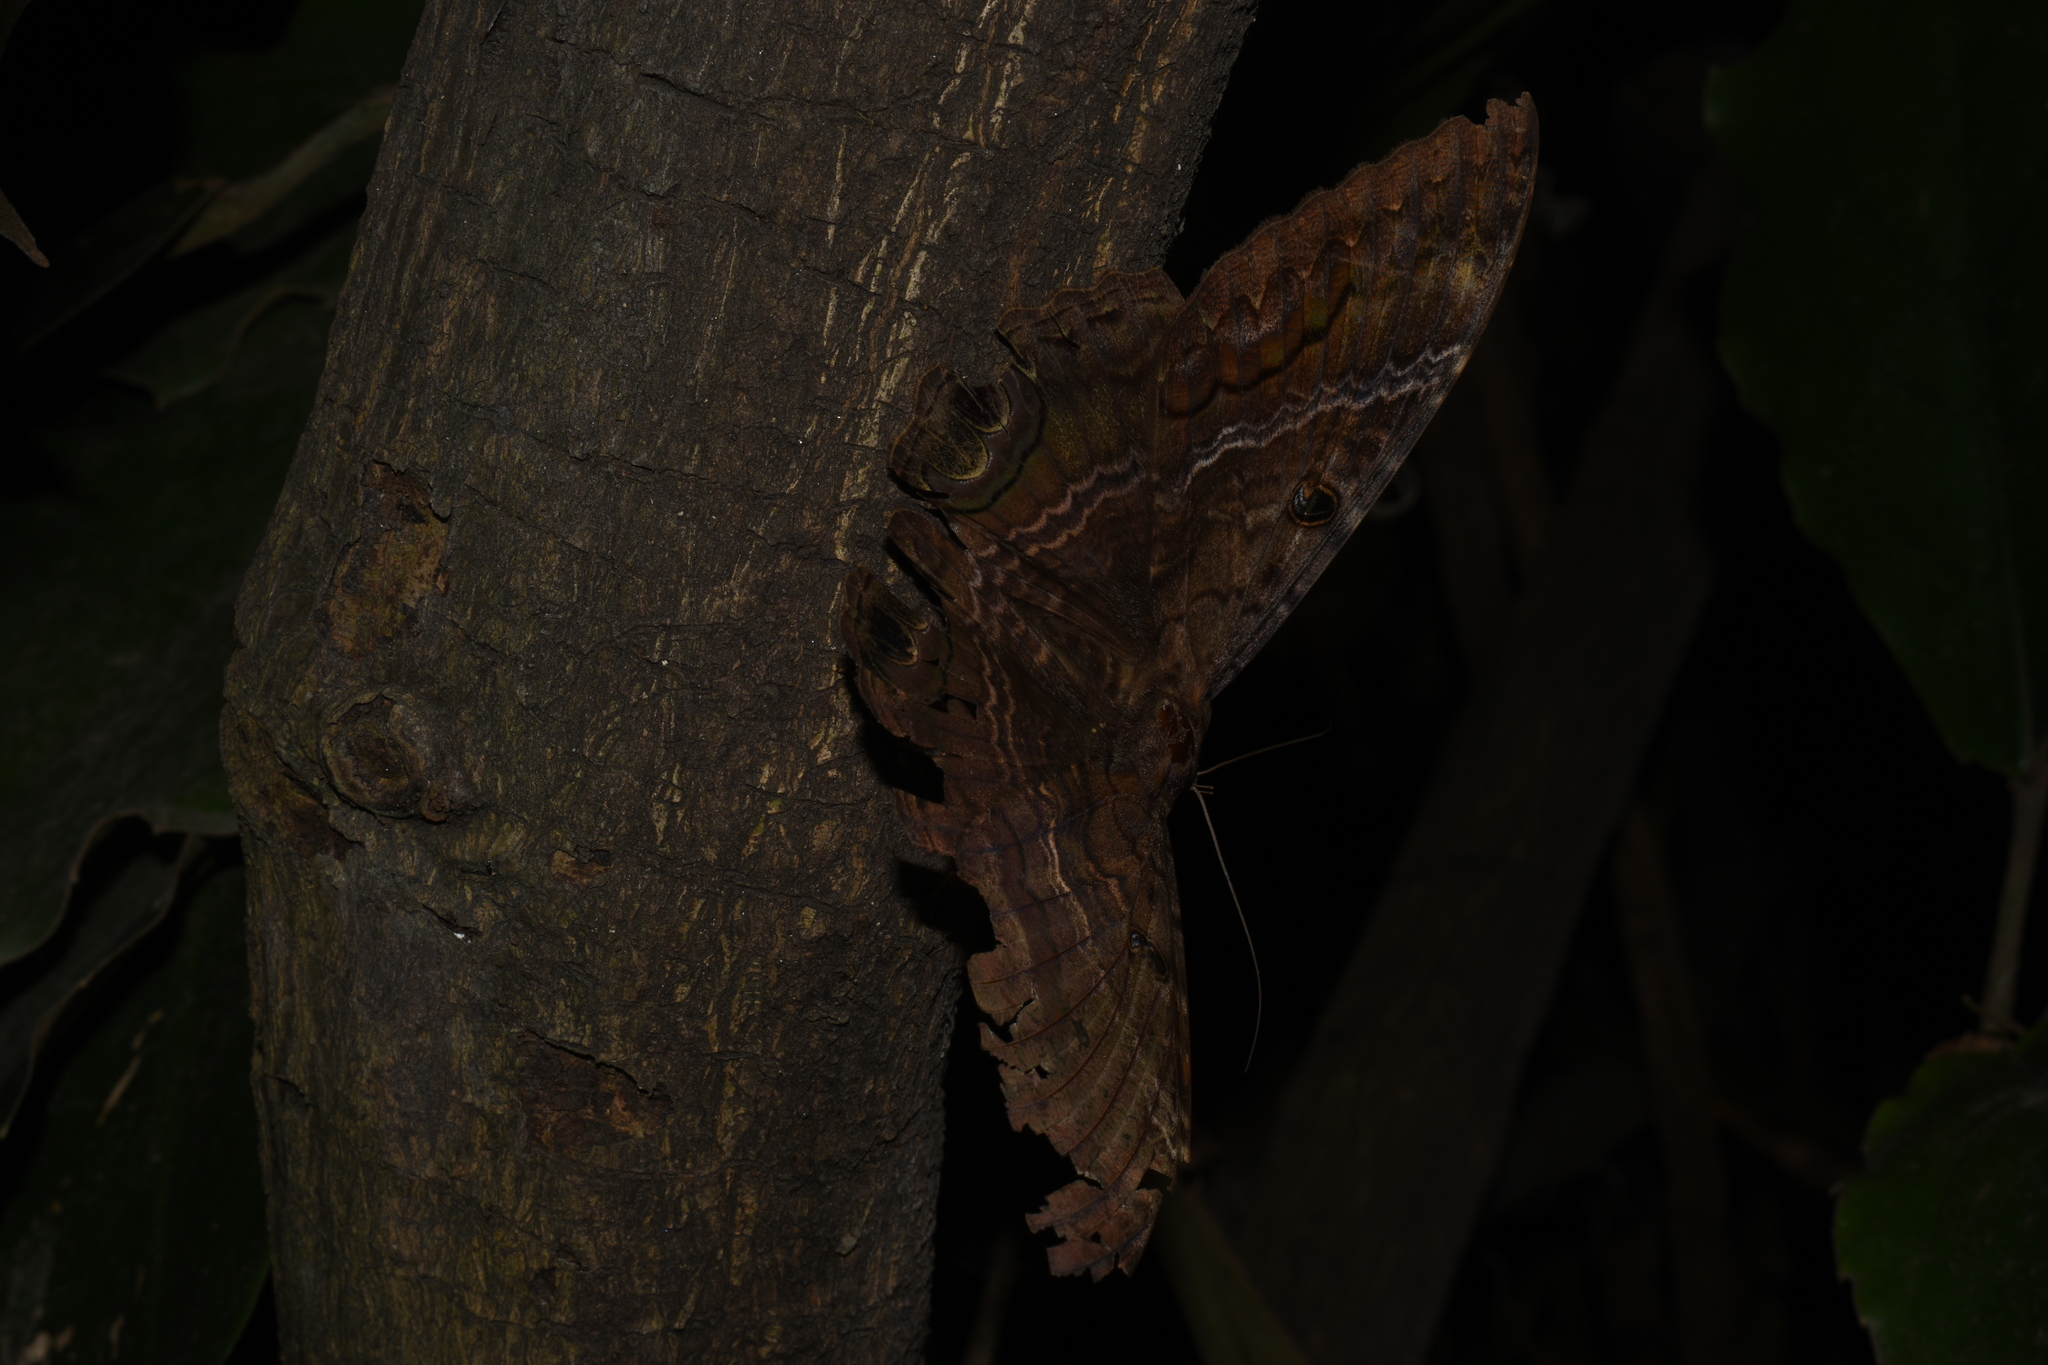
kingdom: Animalia
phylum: Arthropoda
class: Insecta
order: Lepidoptera
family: Erebidae
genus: Ascalapha
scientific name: Ascalapha odorata
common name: Black witch
